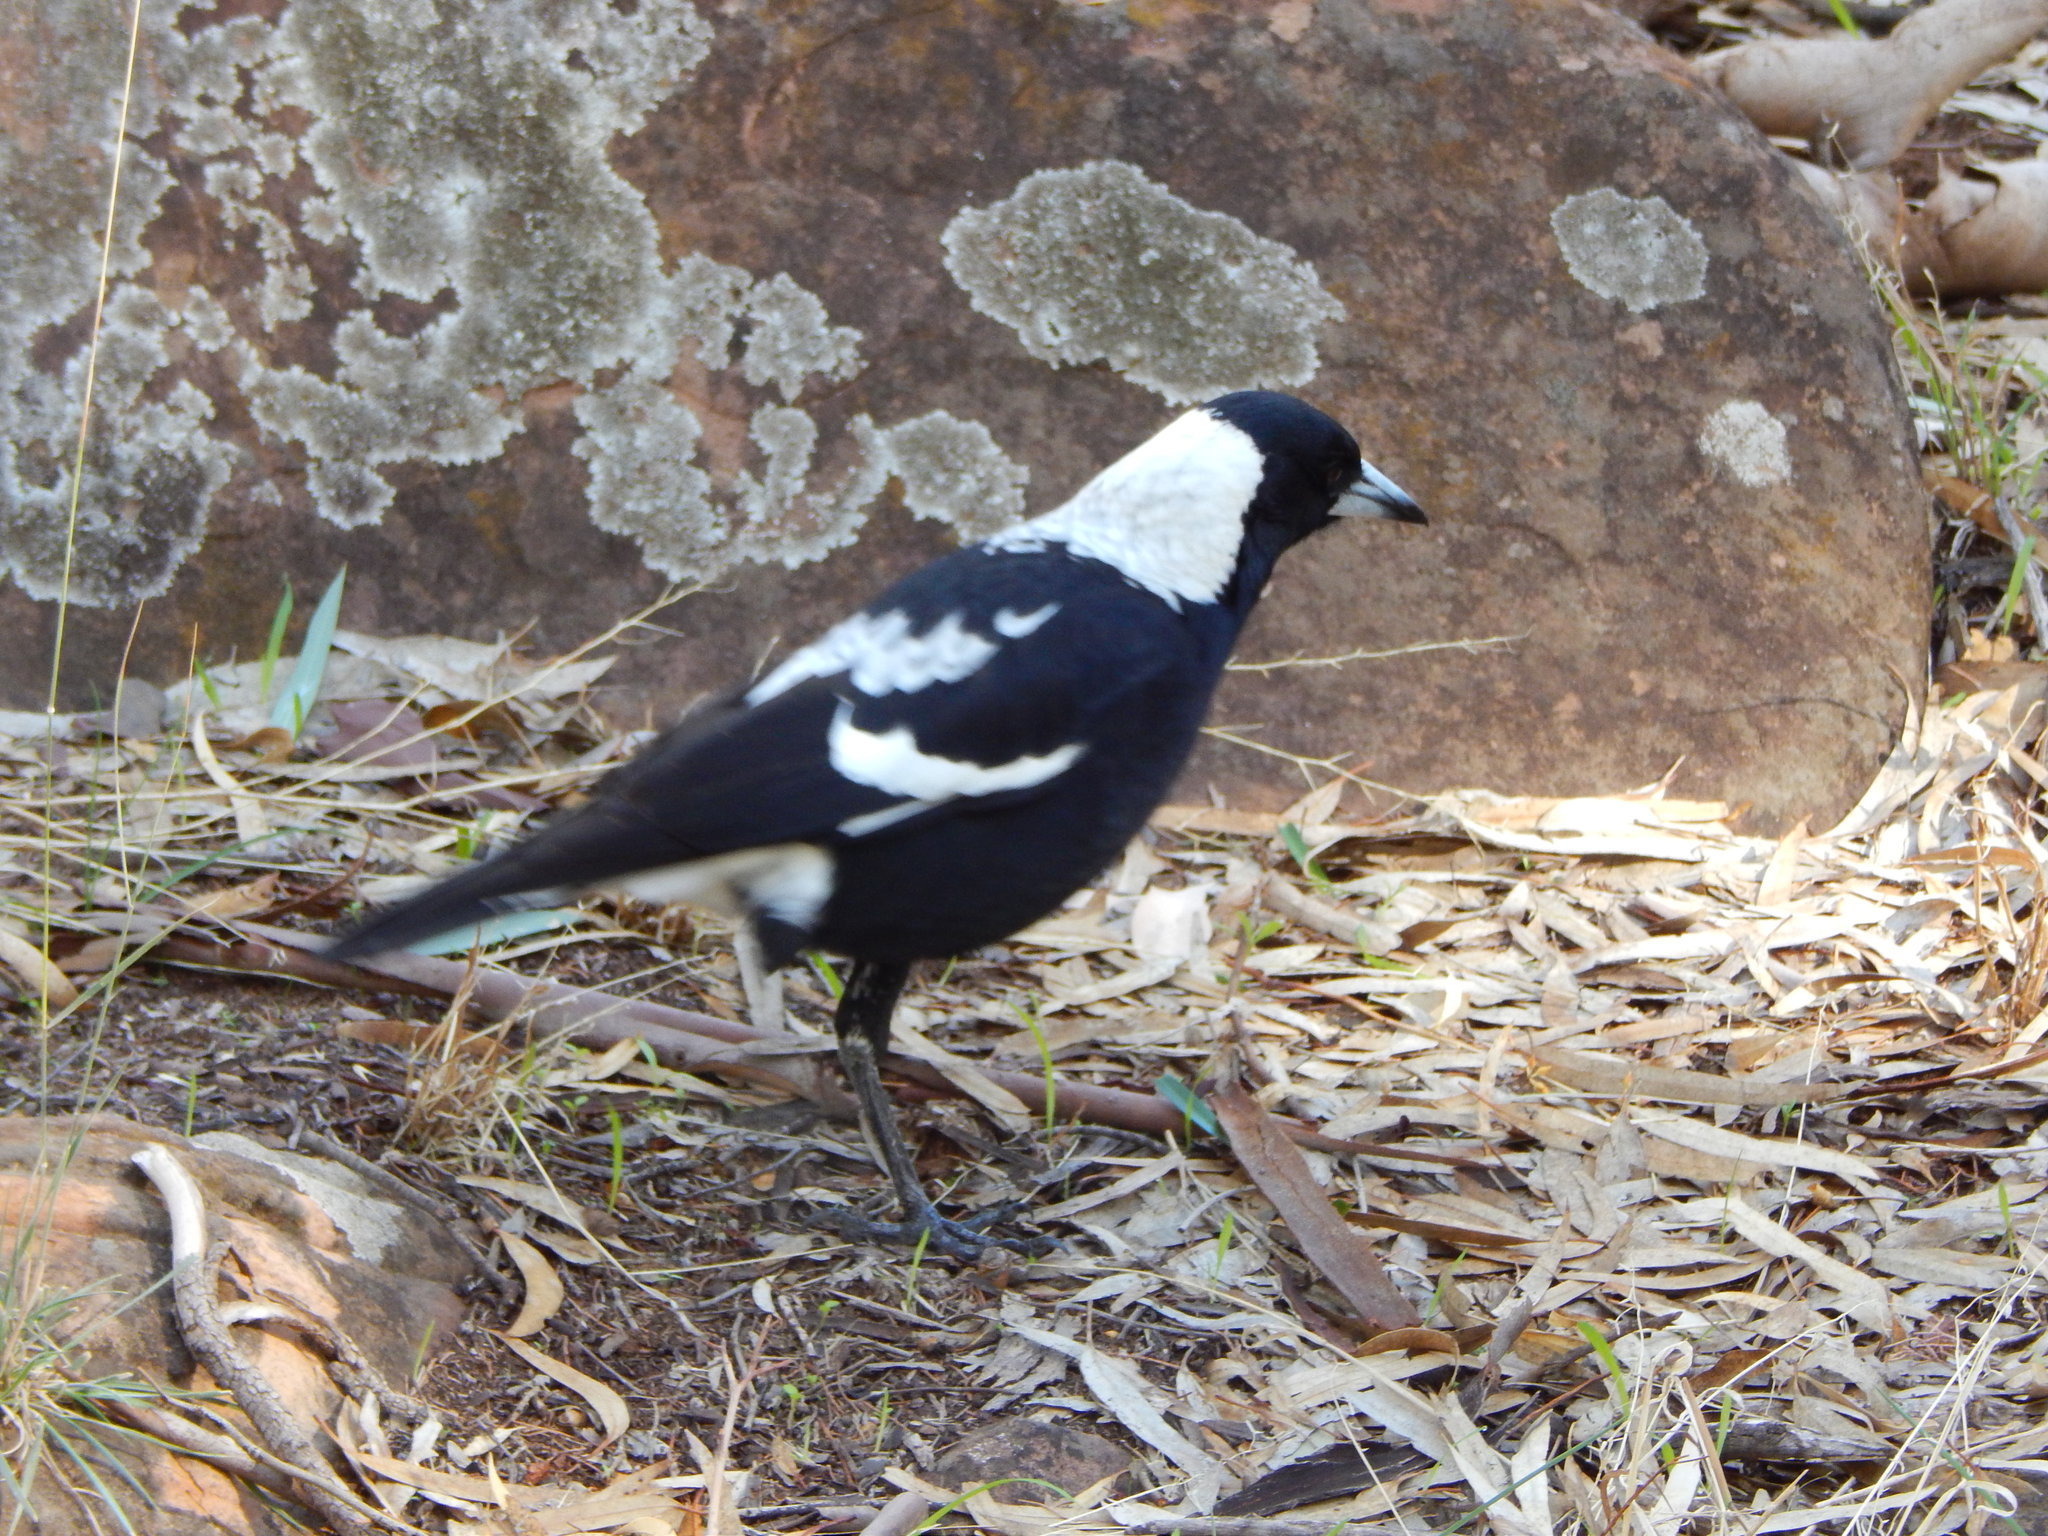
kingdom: Animalia
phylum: Chordata
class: Aves
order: Passeriformes
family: Cracticidae
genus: Gymnorhina
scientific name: Gymnorhina tibicen
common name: Australian magpie
